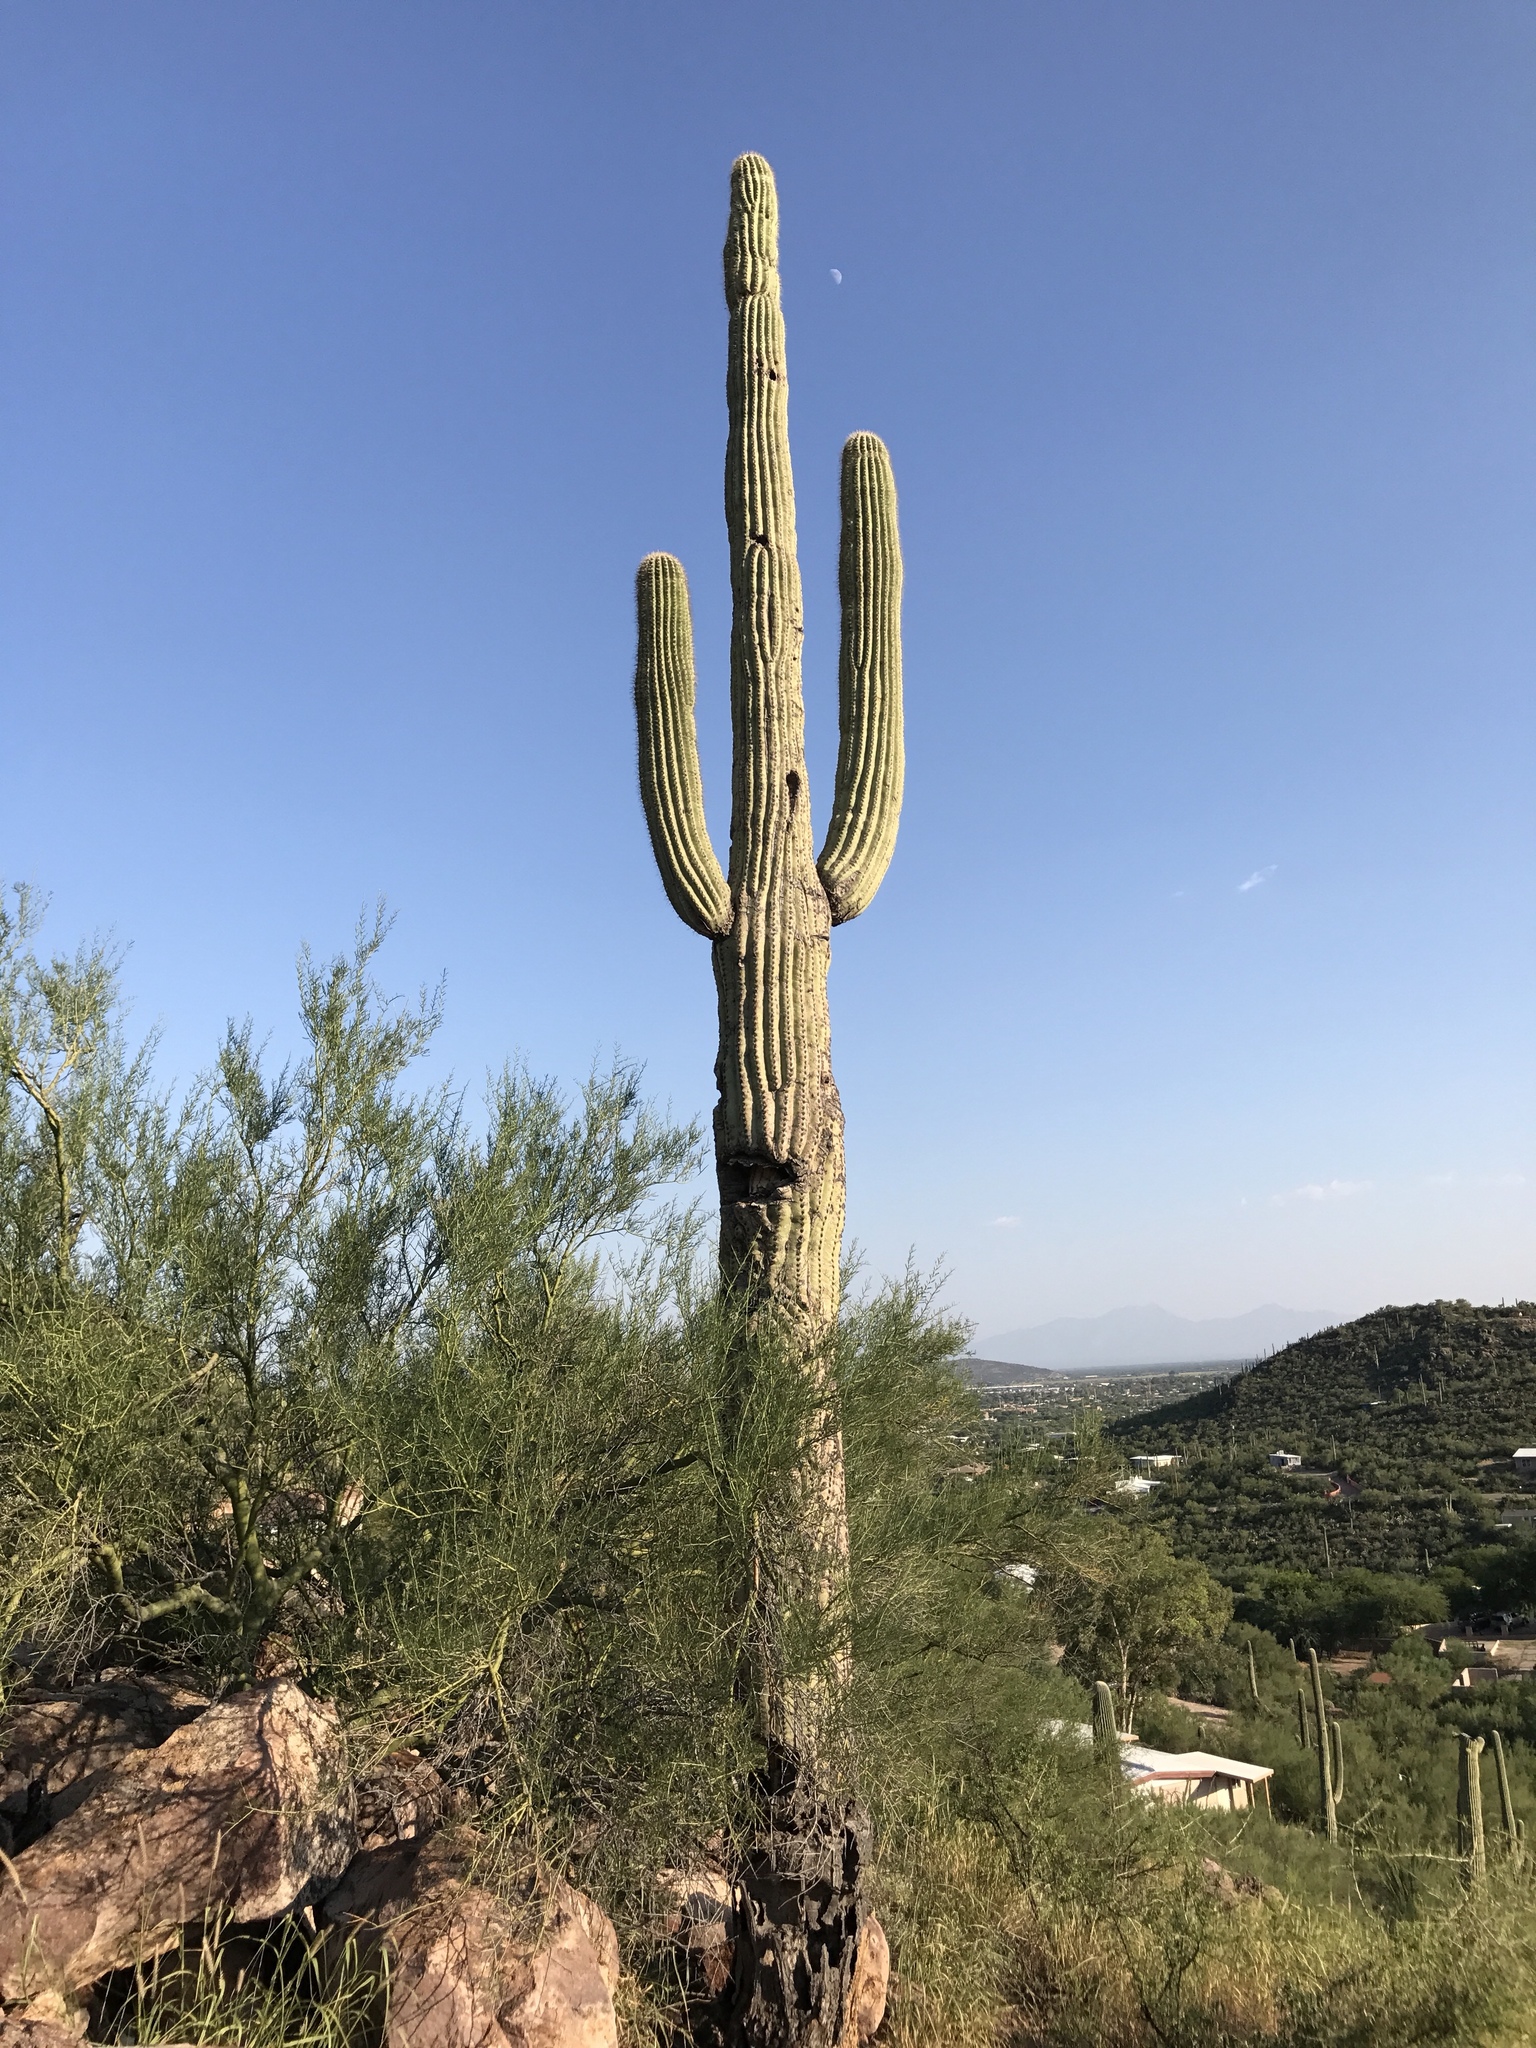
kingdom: Plantae
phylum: Tracheophyta
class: Magnoliopsida
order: Caryophyllales
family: Cactaceae
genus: Carnegiea
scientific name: Carnegiea gigantea
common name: Saguaro
